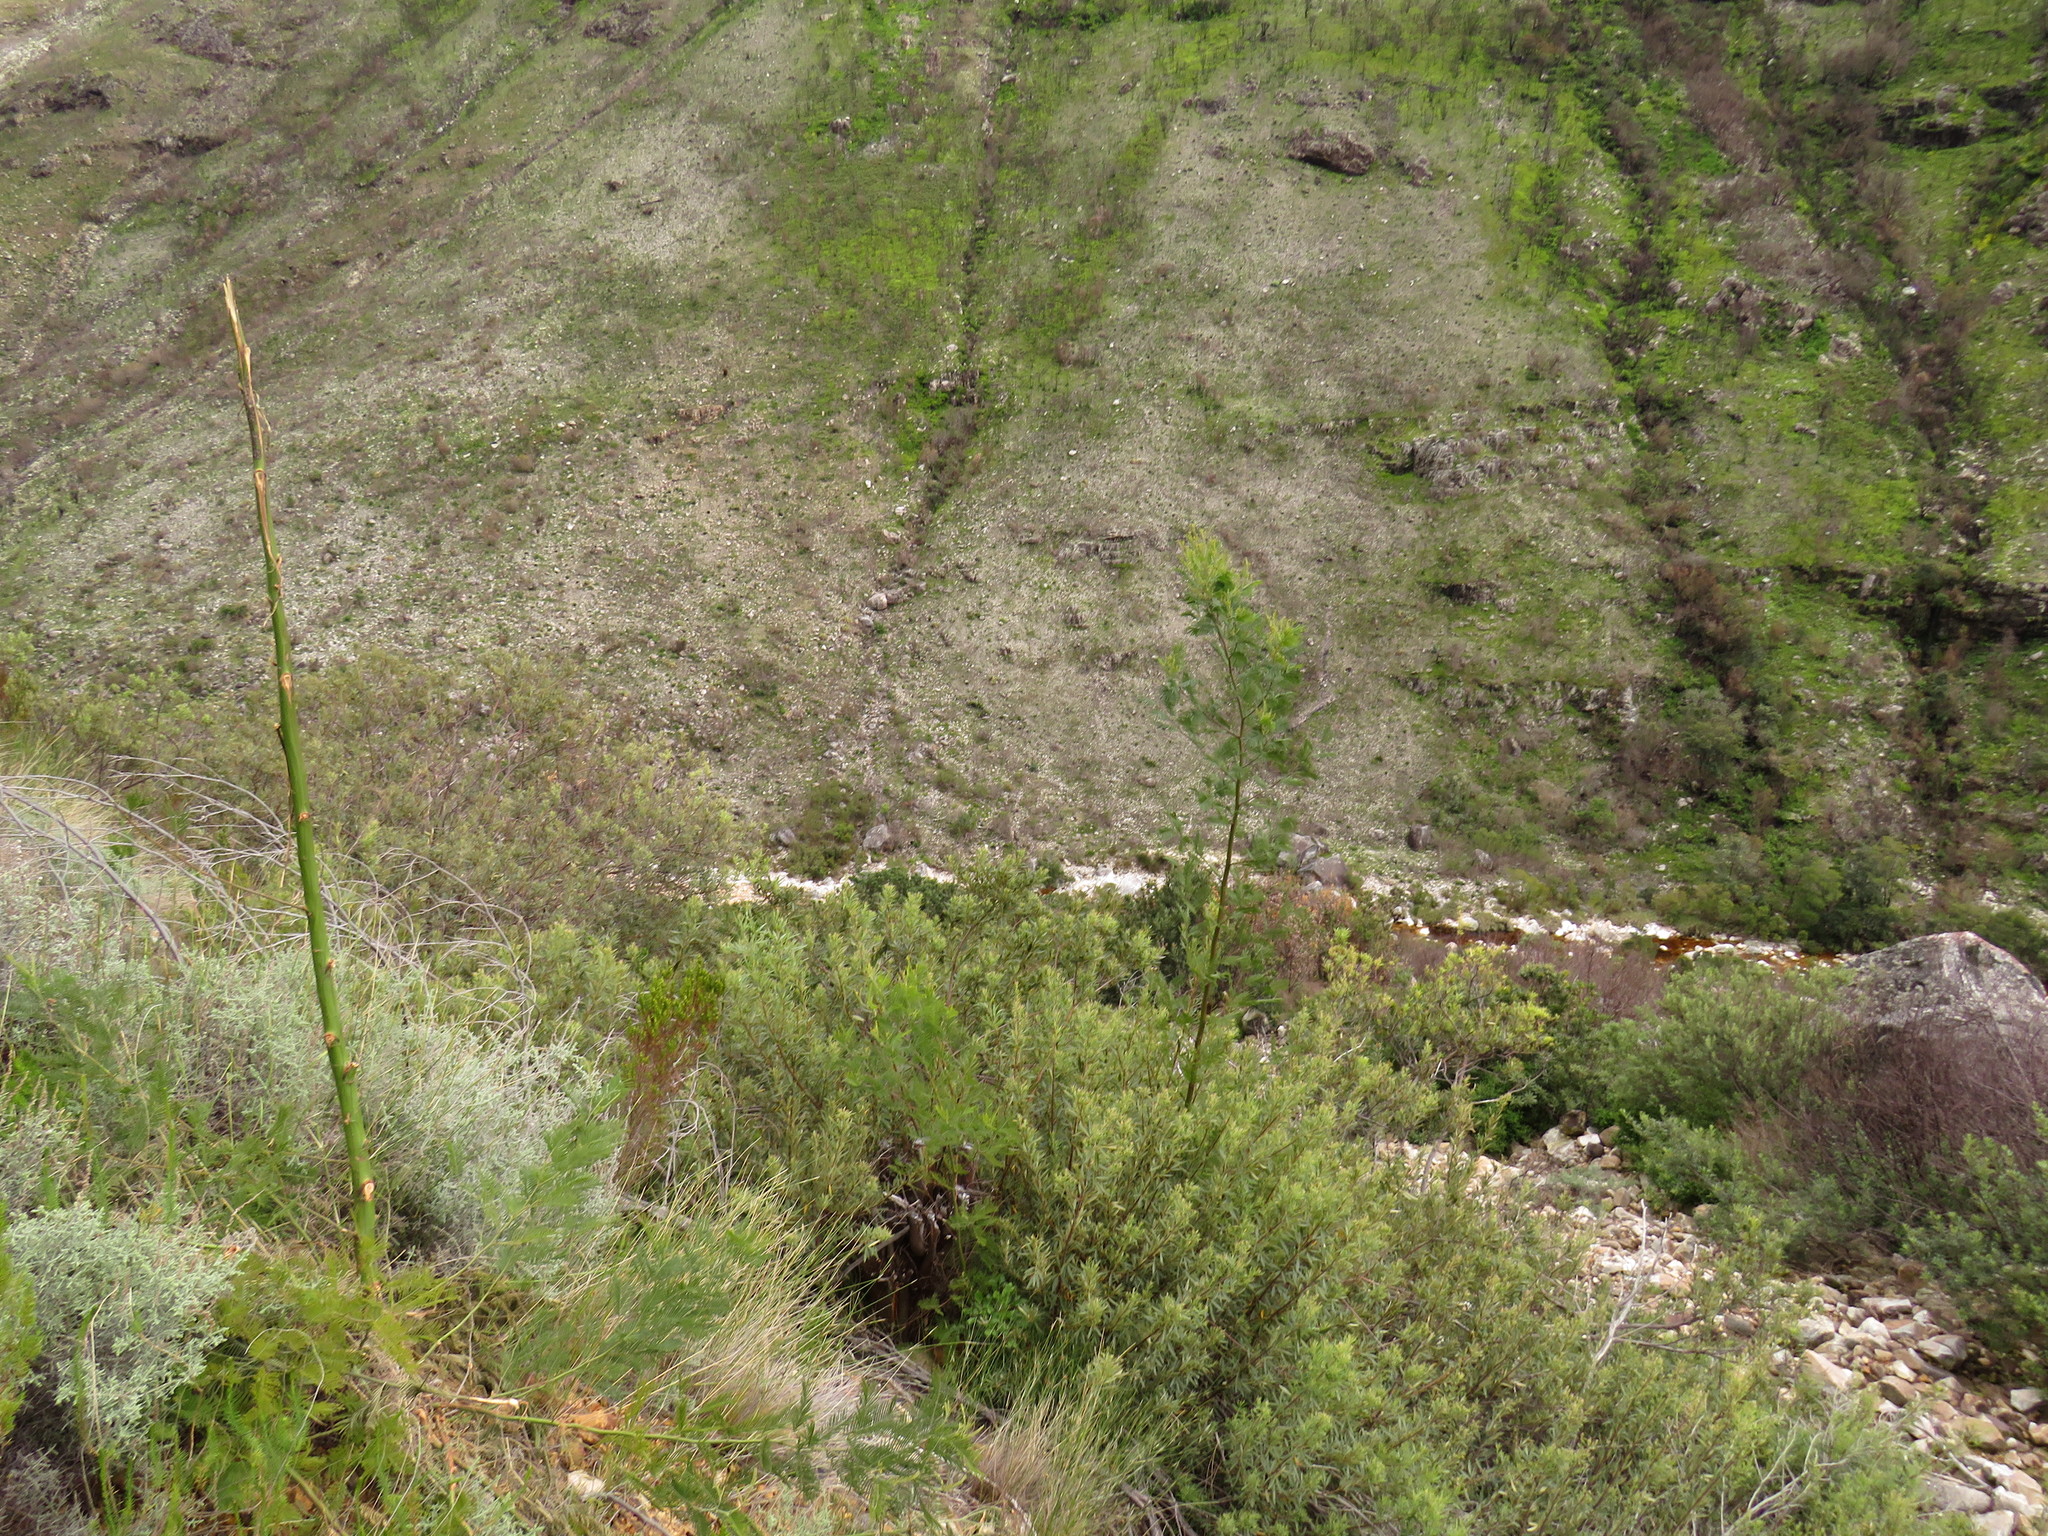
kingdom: Plantae
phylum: Tracheophyta
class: Magnoliopsida
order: Fabales
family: Fabaceae
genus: Acacia
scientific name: Acacia mearnsii
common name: Black wattle
